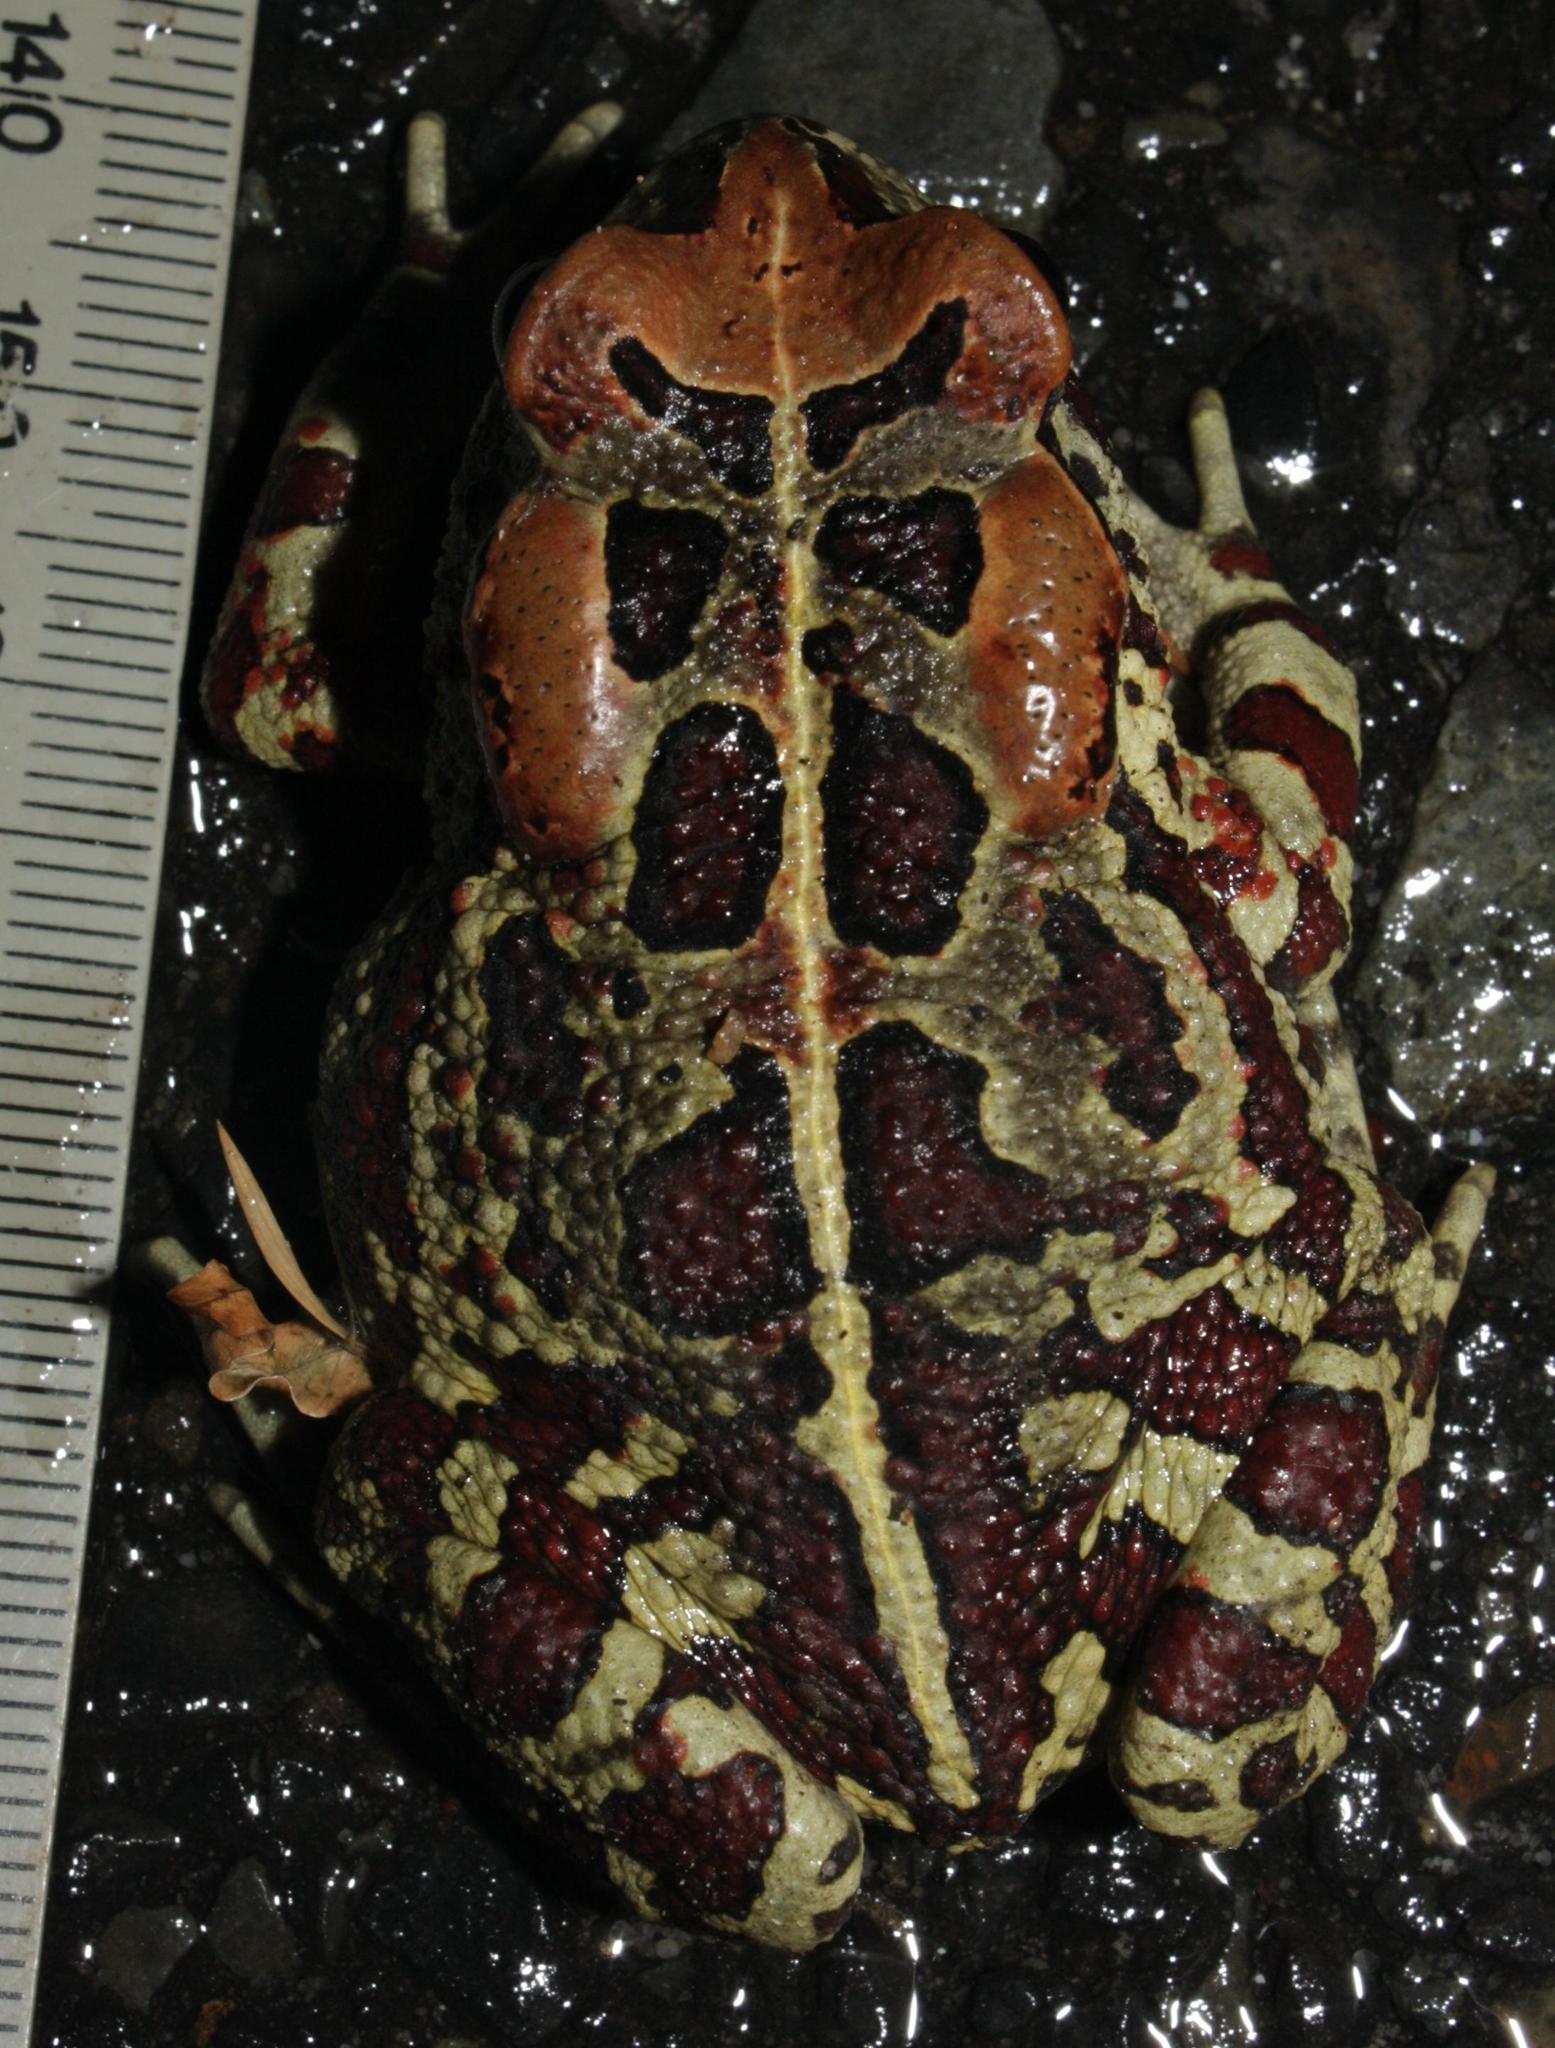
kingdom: Animalia
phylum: Chordata
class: Amphibia
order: Anura
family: Bufonidae
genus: Sclerophrys
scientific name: Sclerophrys pantherina
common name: Panther toad
